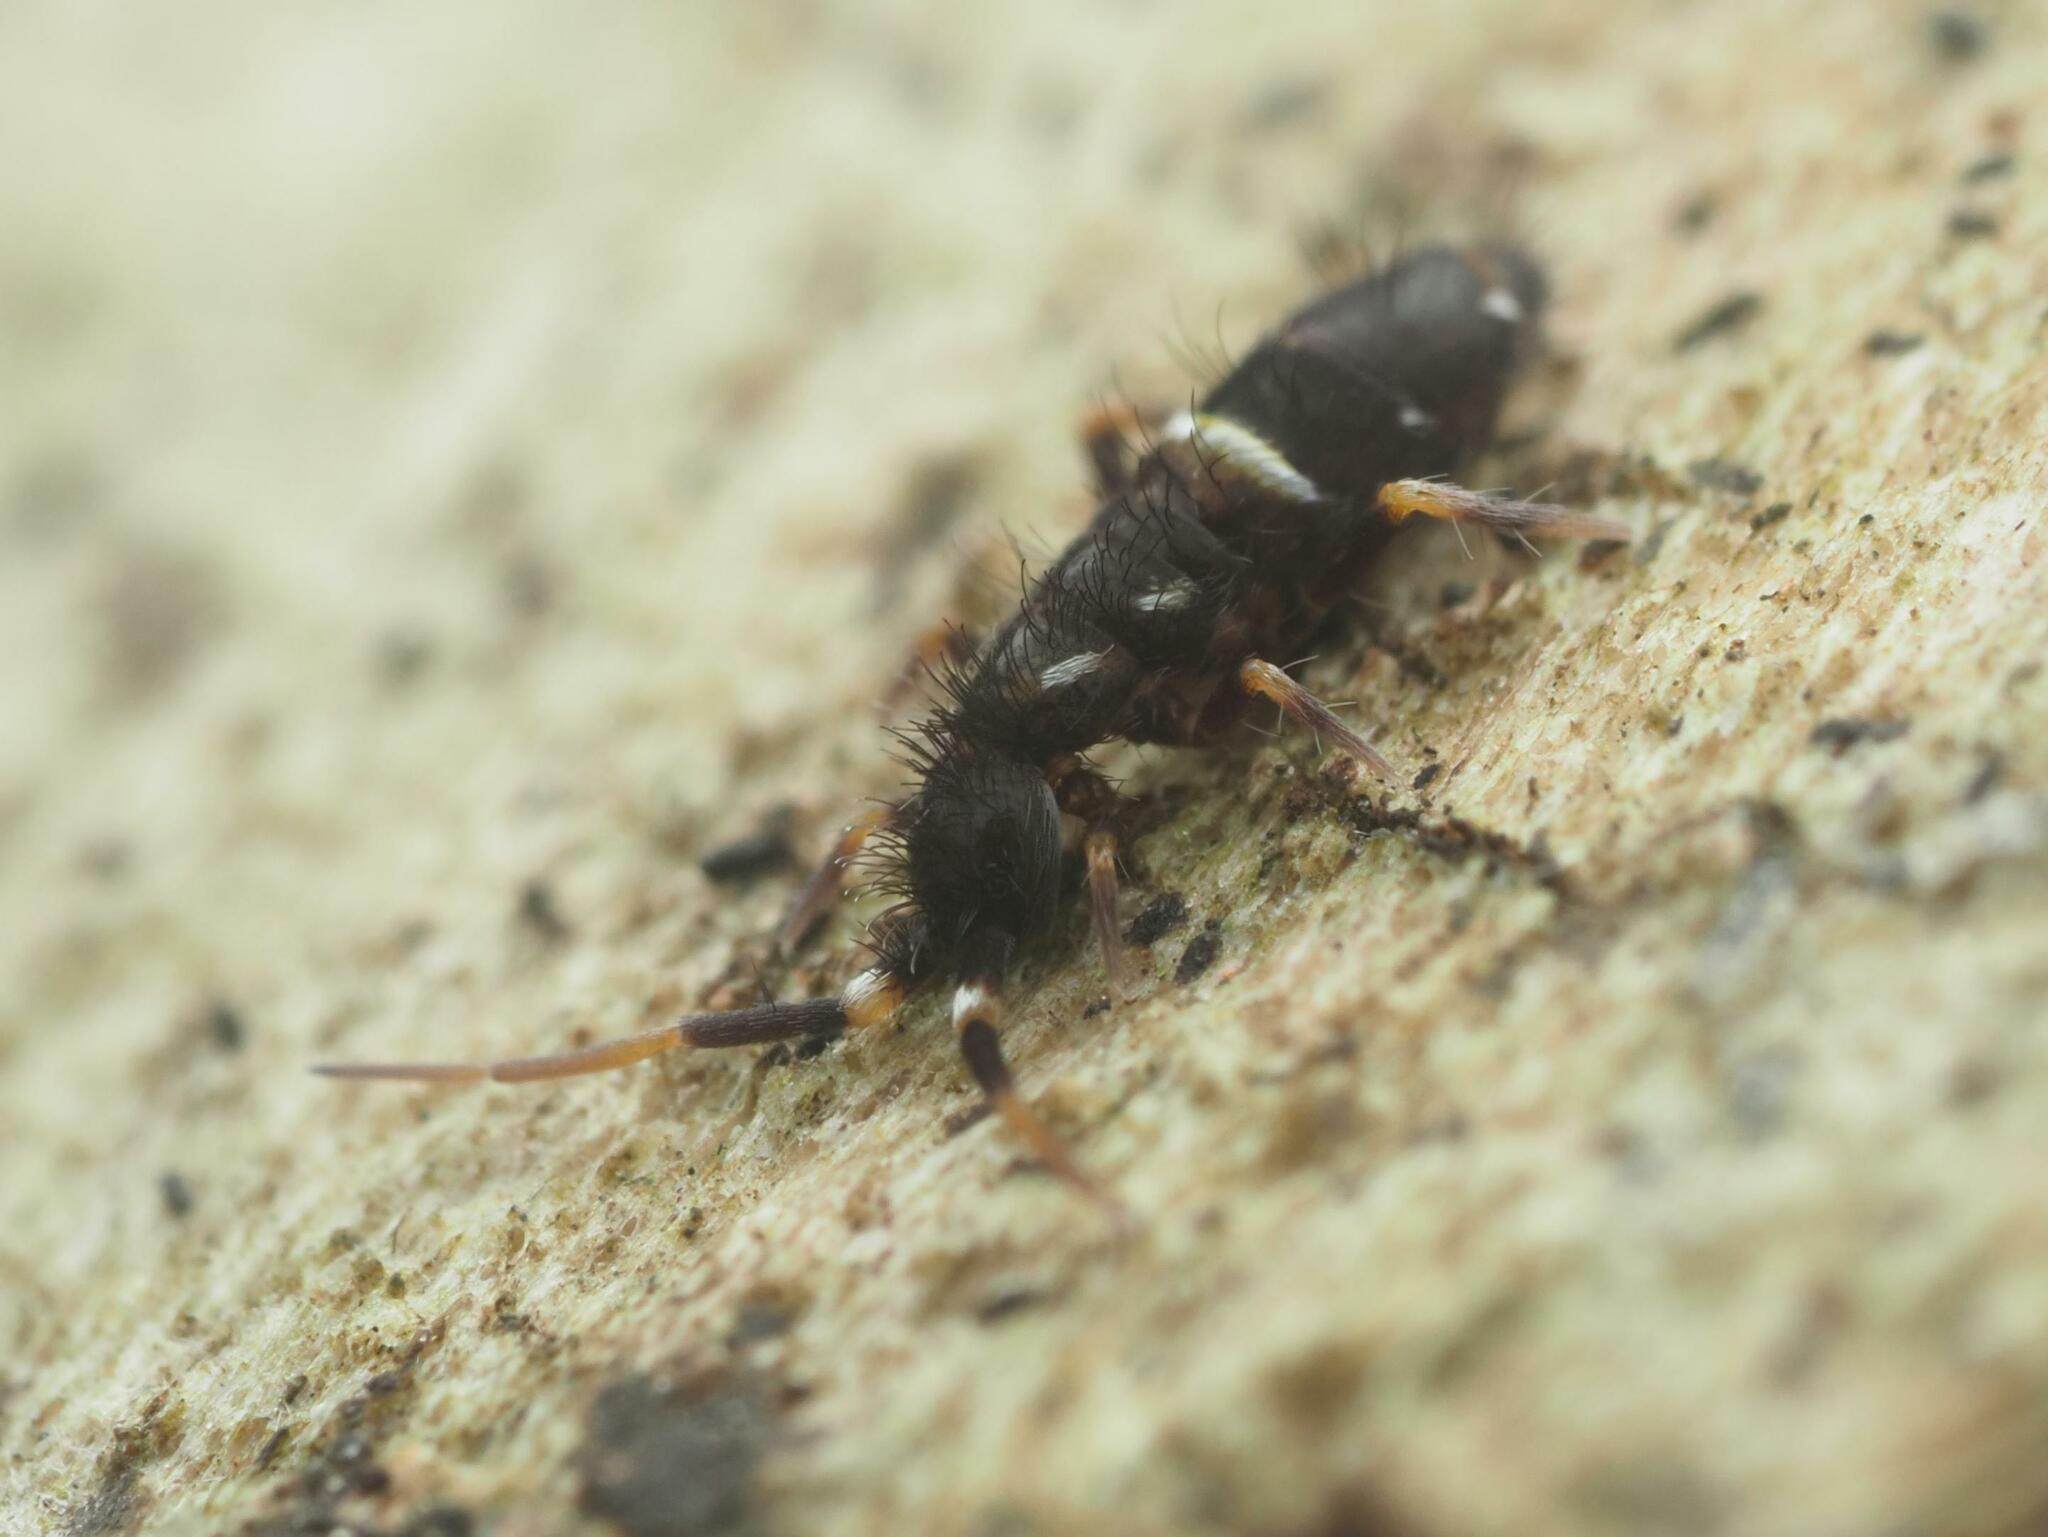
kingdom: Animalia
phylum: Arthropoda
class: Collembola
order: Entomobryomorpha
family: Orchesellidae
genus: Orchesella
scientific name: Orchesella cincta
